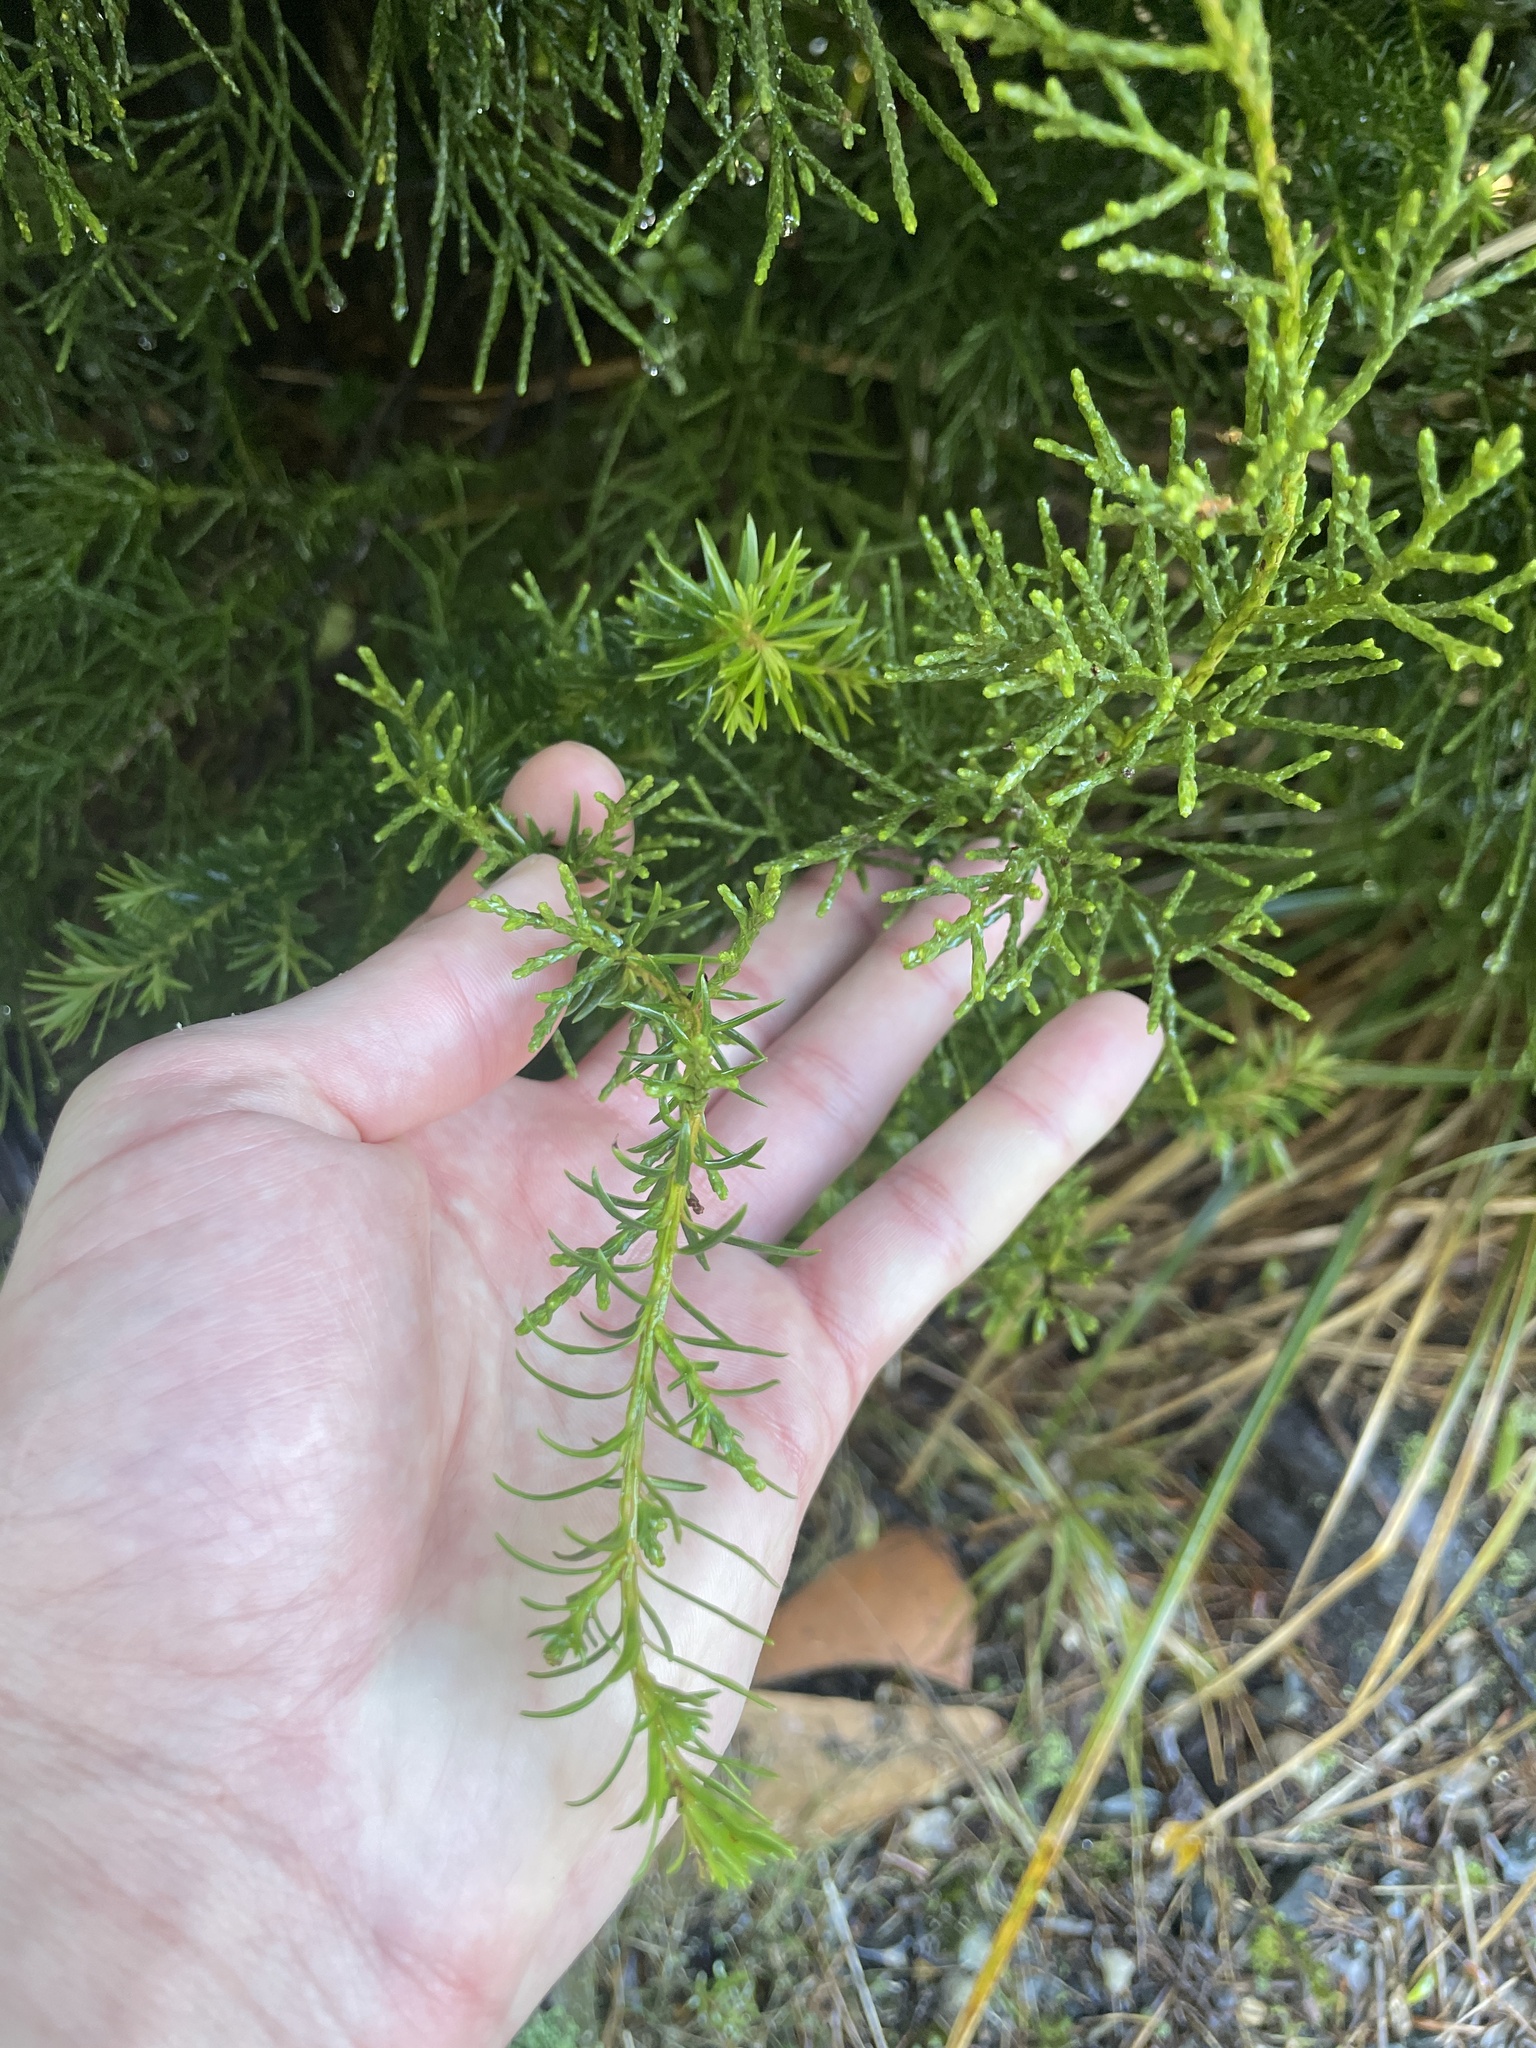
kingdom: Plantae
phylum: Tracheophyta
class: Pinopsida
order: Pinales
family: Podocarpaceae
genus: Halocarpus
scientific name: Halocarpus biformis
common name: Alpine tarwood
